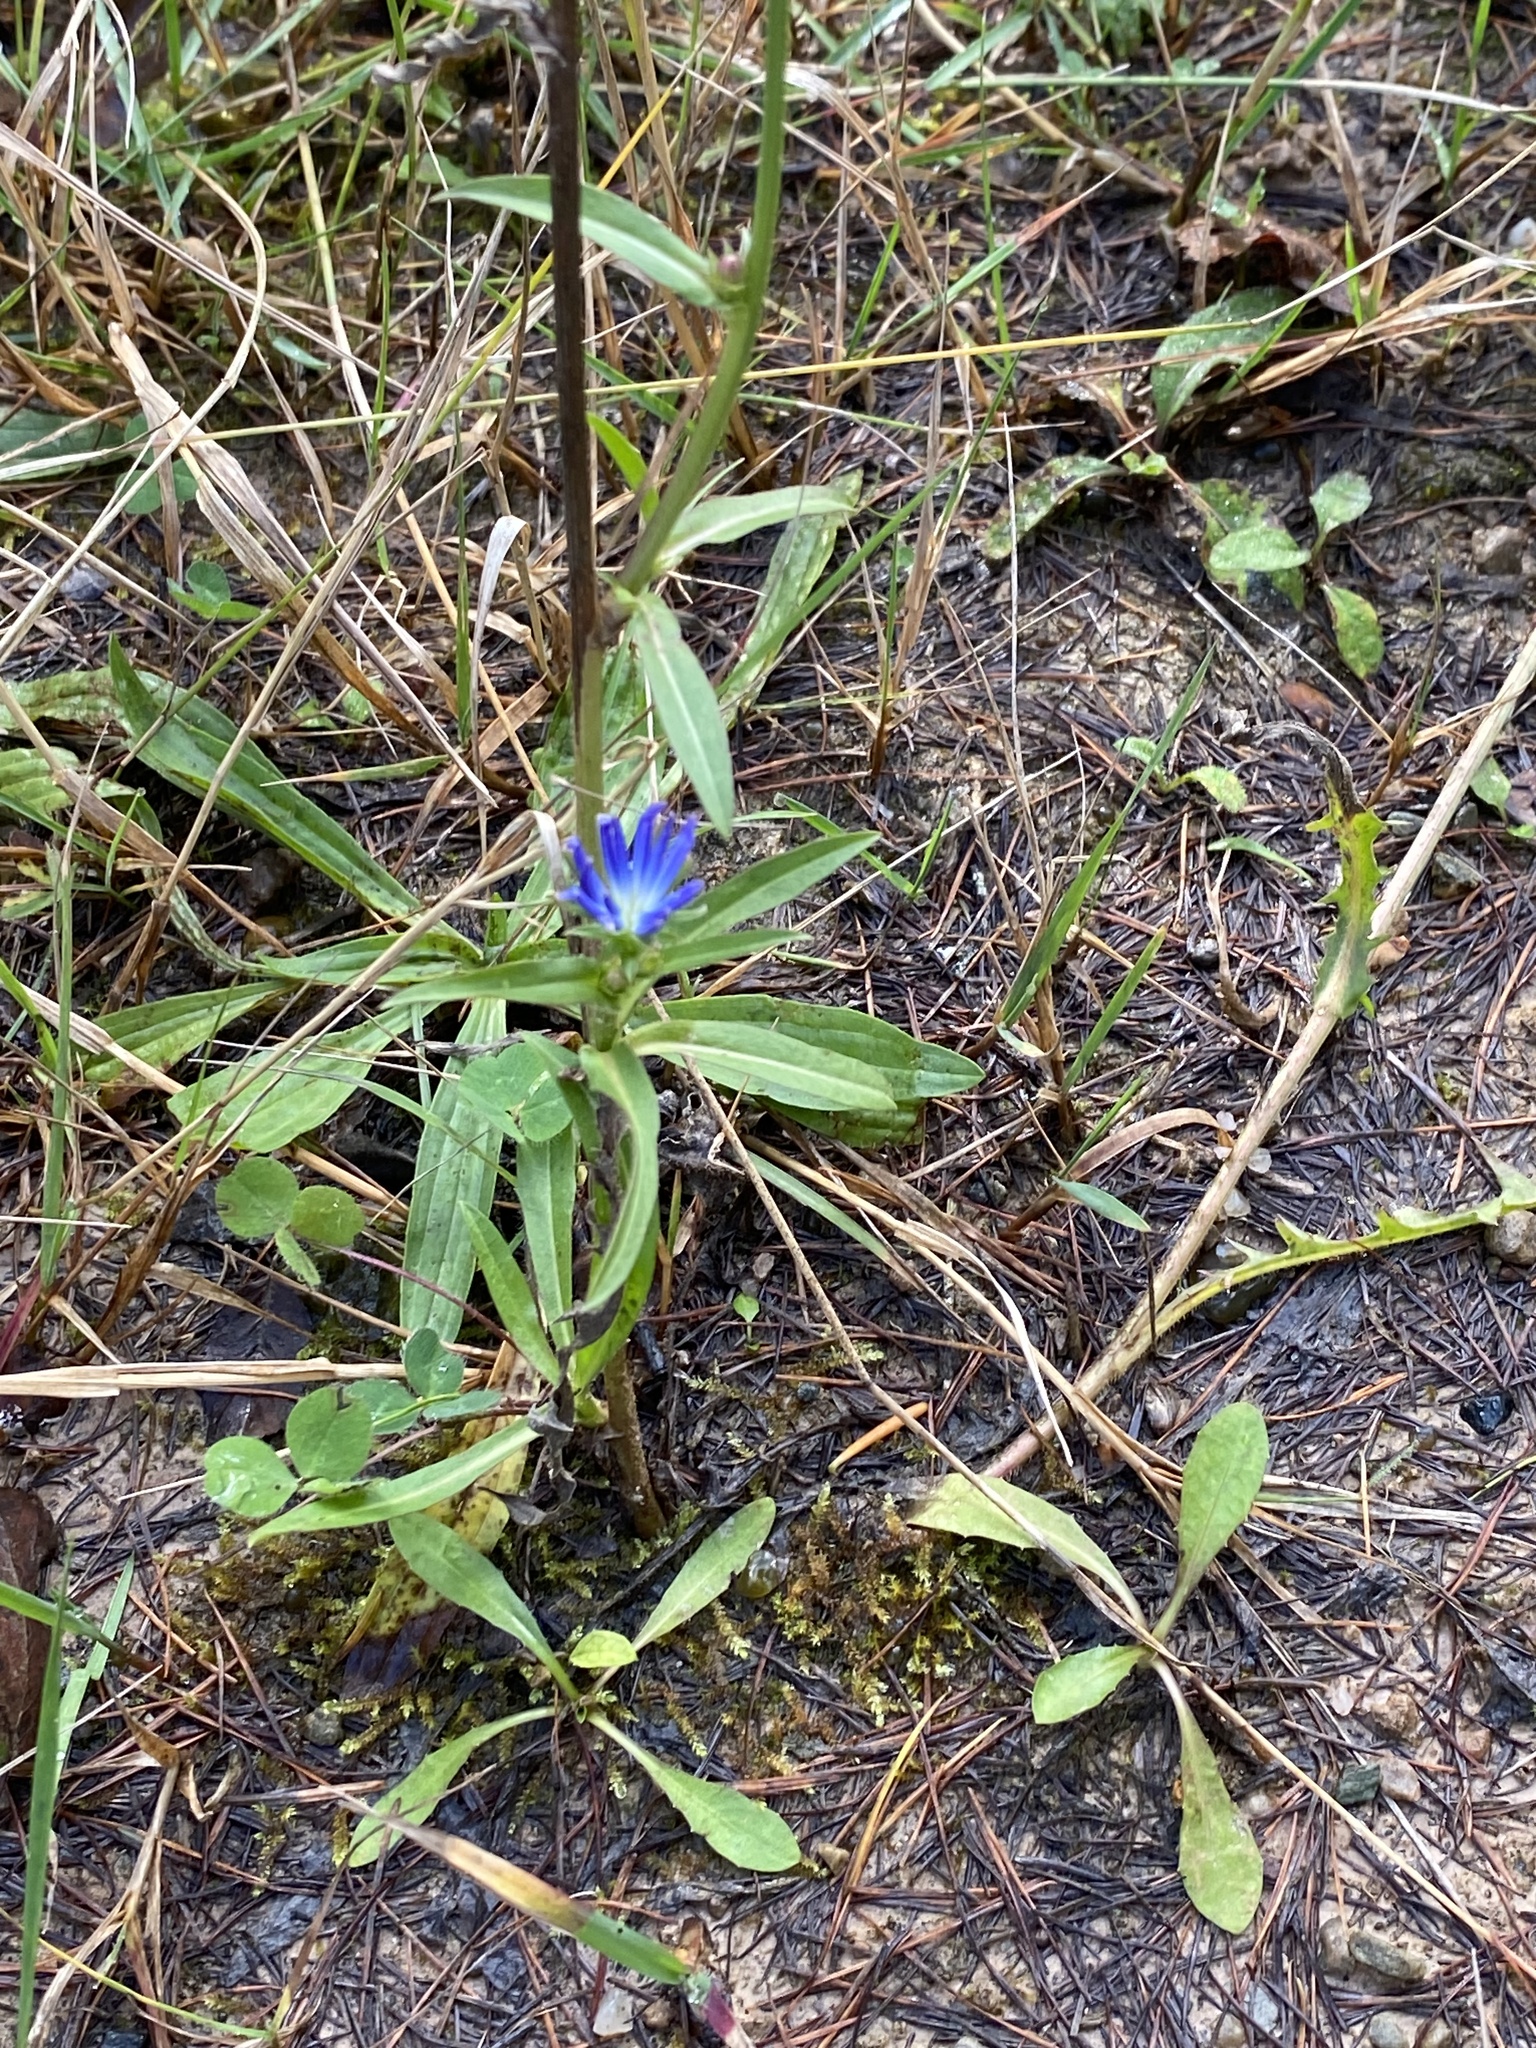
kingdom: Plantae
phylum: Tracheophyta
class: Magnoliopsida
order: Asterales
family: Asteraceae
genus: Cichorium
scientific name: Cichorium intybus
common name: Chicory
